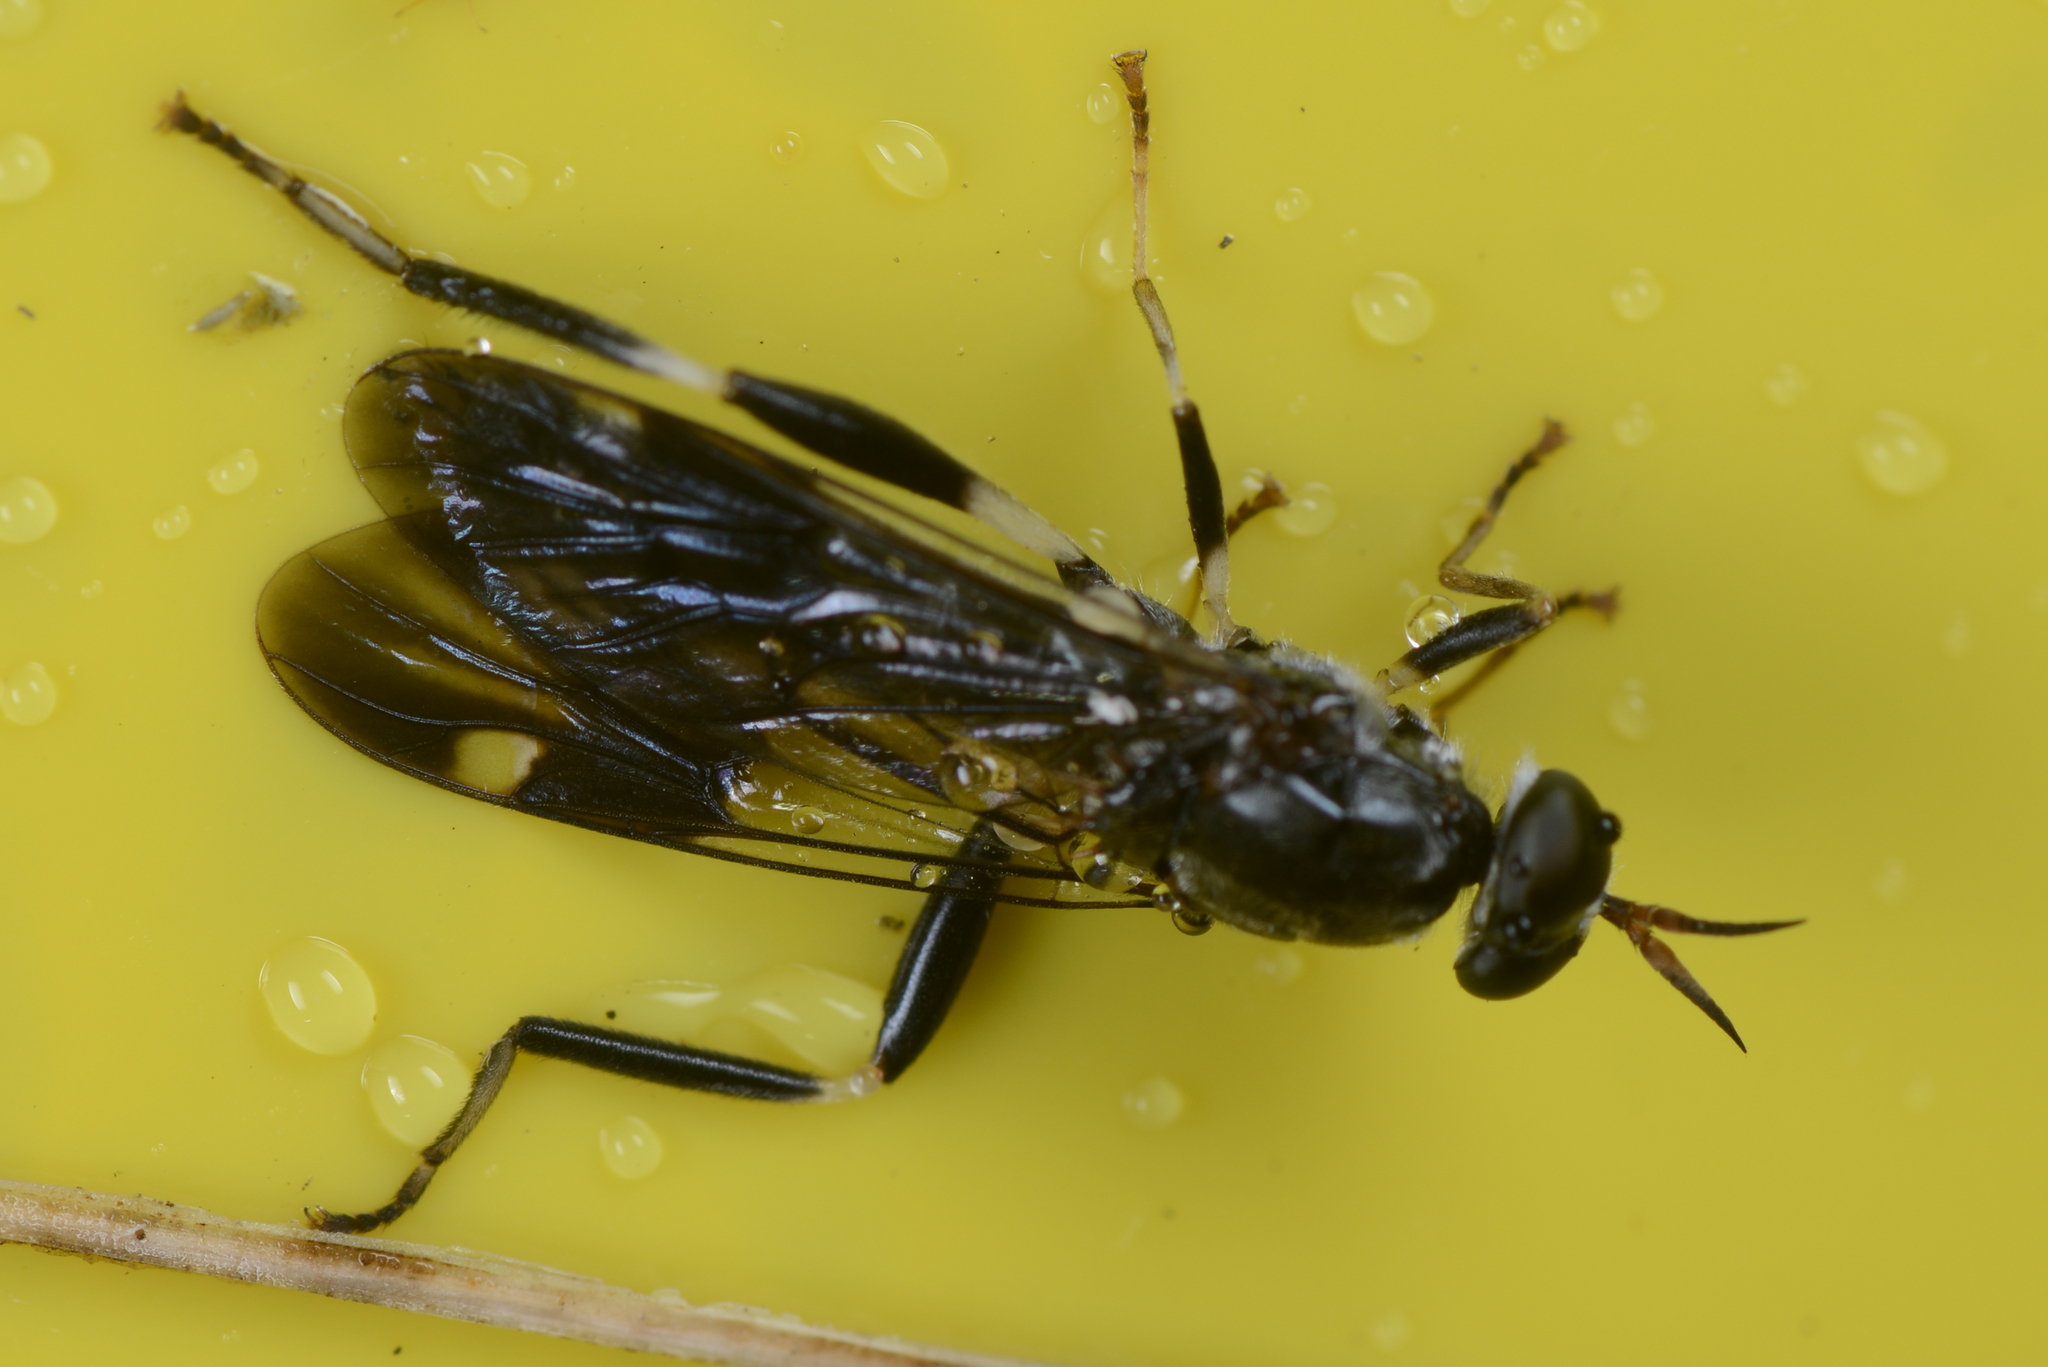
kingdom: Animalia
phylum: Arthropoda
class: Insecta
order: Diptera
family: Stratiomyidae
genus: Exaireta
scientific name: Exaireta spinigera
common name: Blue soldier fly
